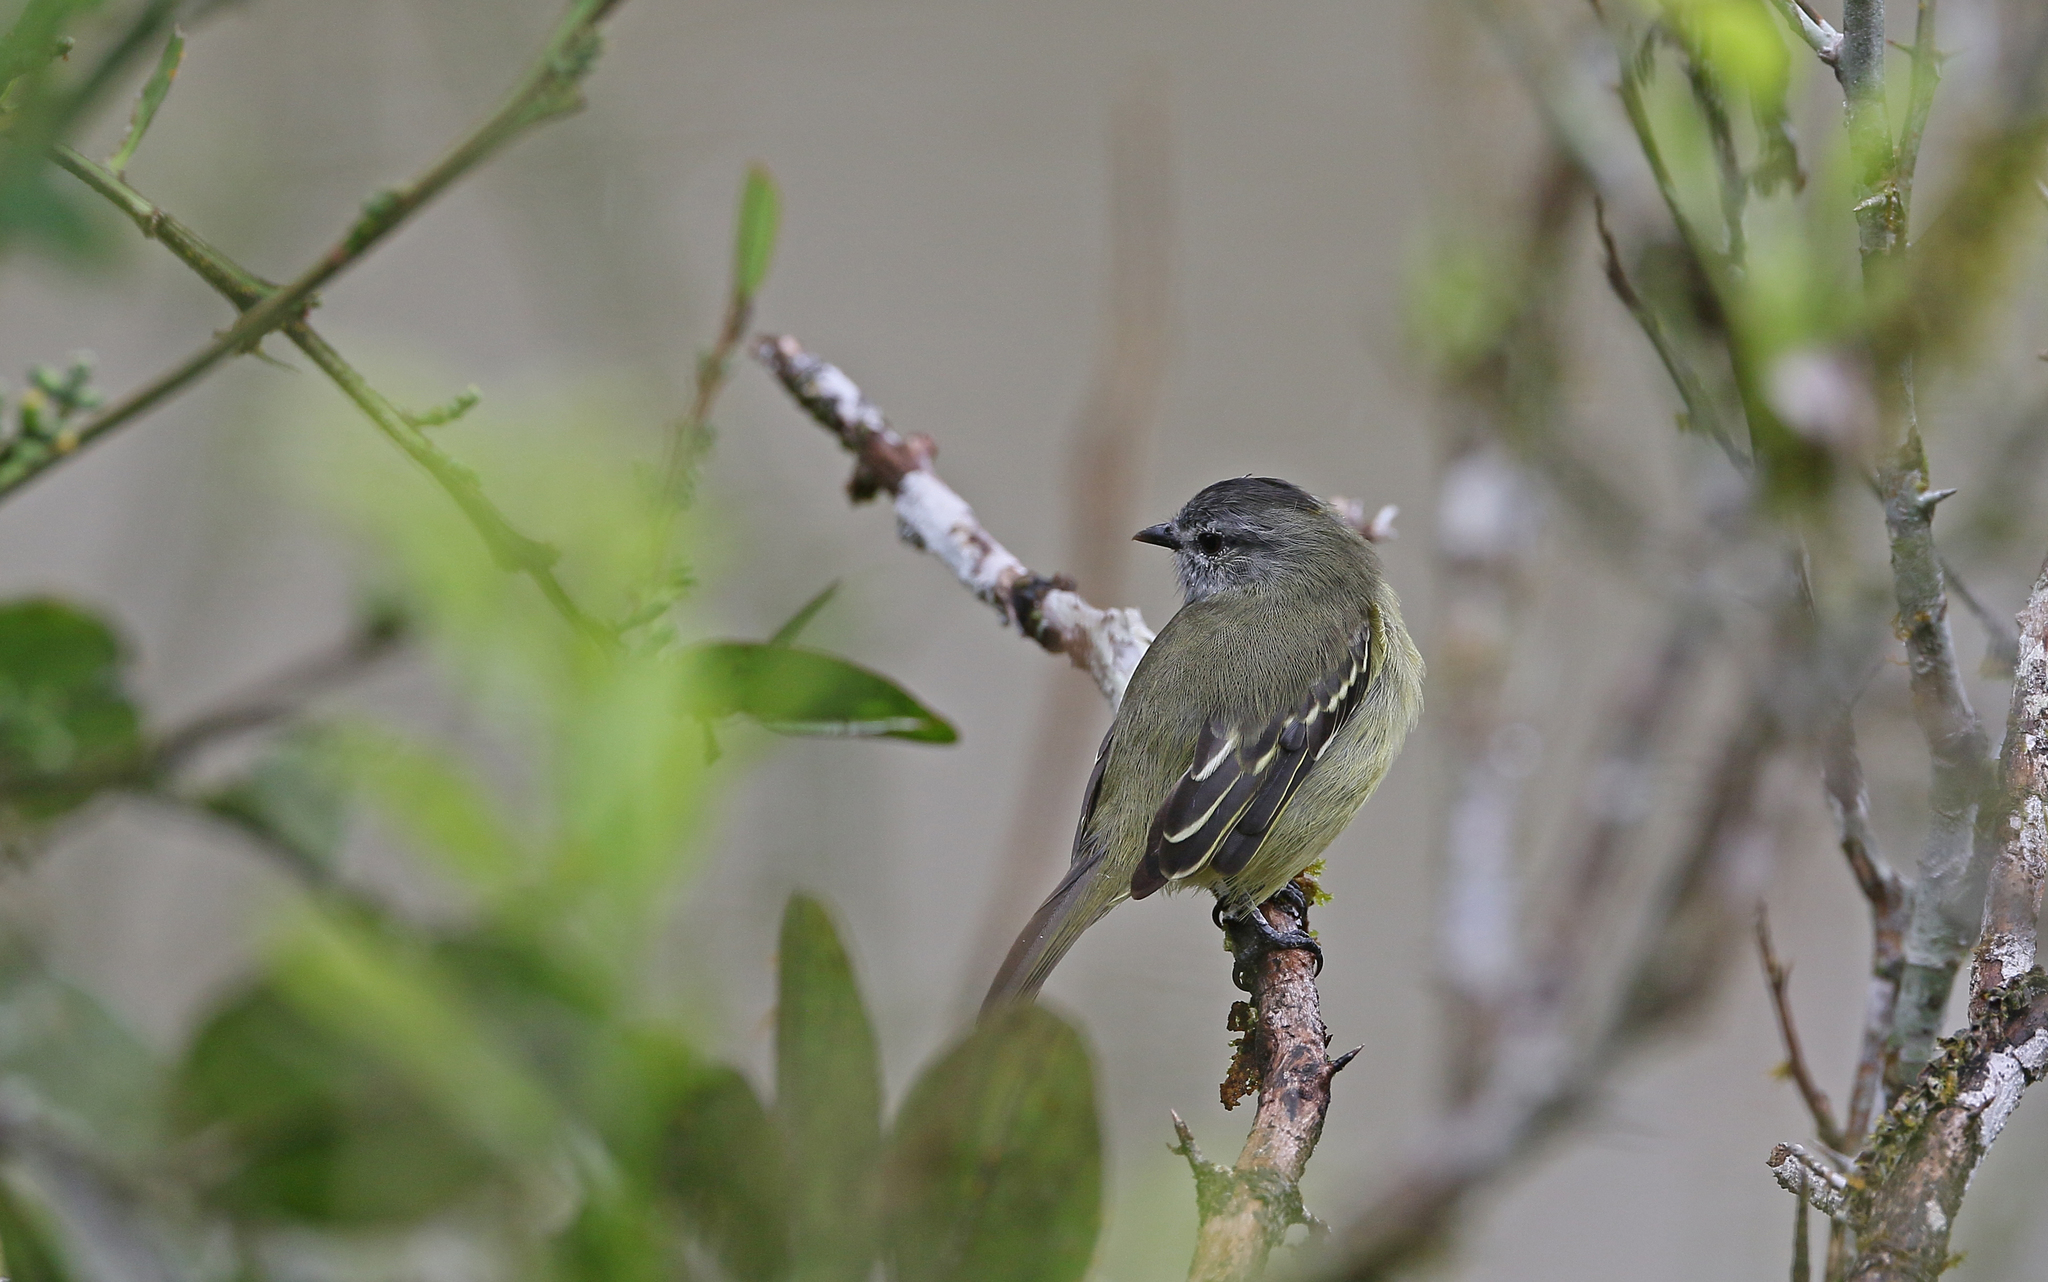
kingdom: Animalia
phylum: Chordata
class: Aves
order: Passeriformes
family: Tyrannidae
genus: Tyrannulus
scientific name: Tyrannulus elatus
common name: Yellow-crowned tyrannulet
